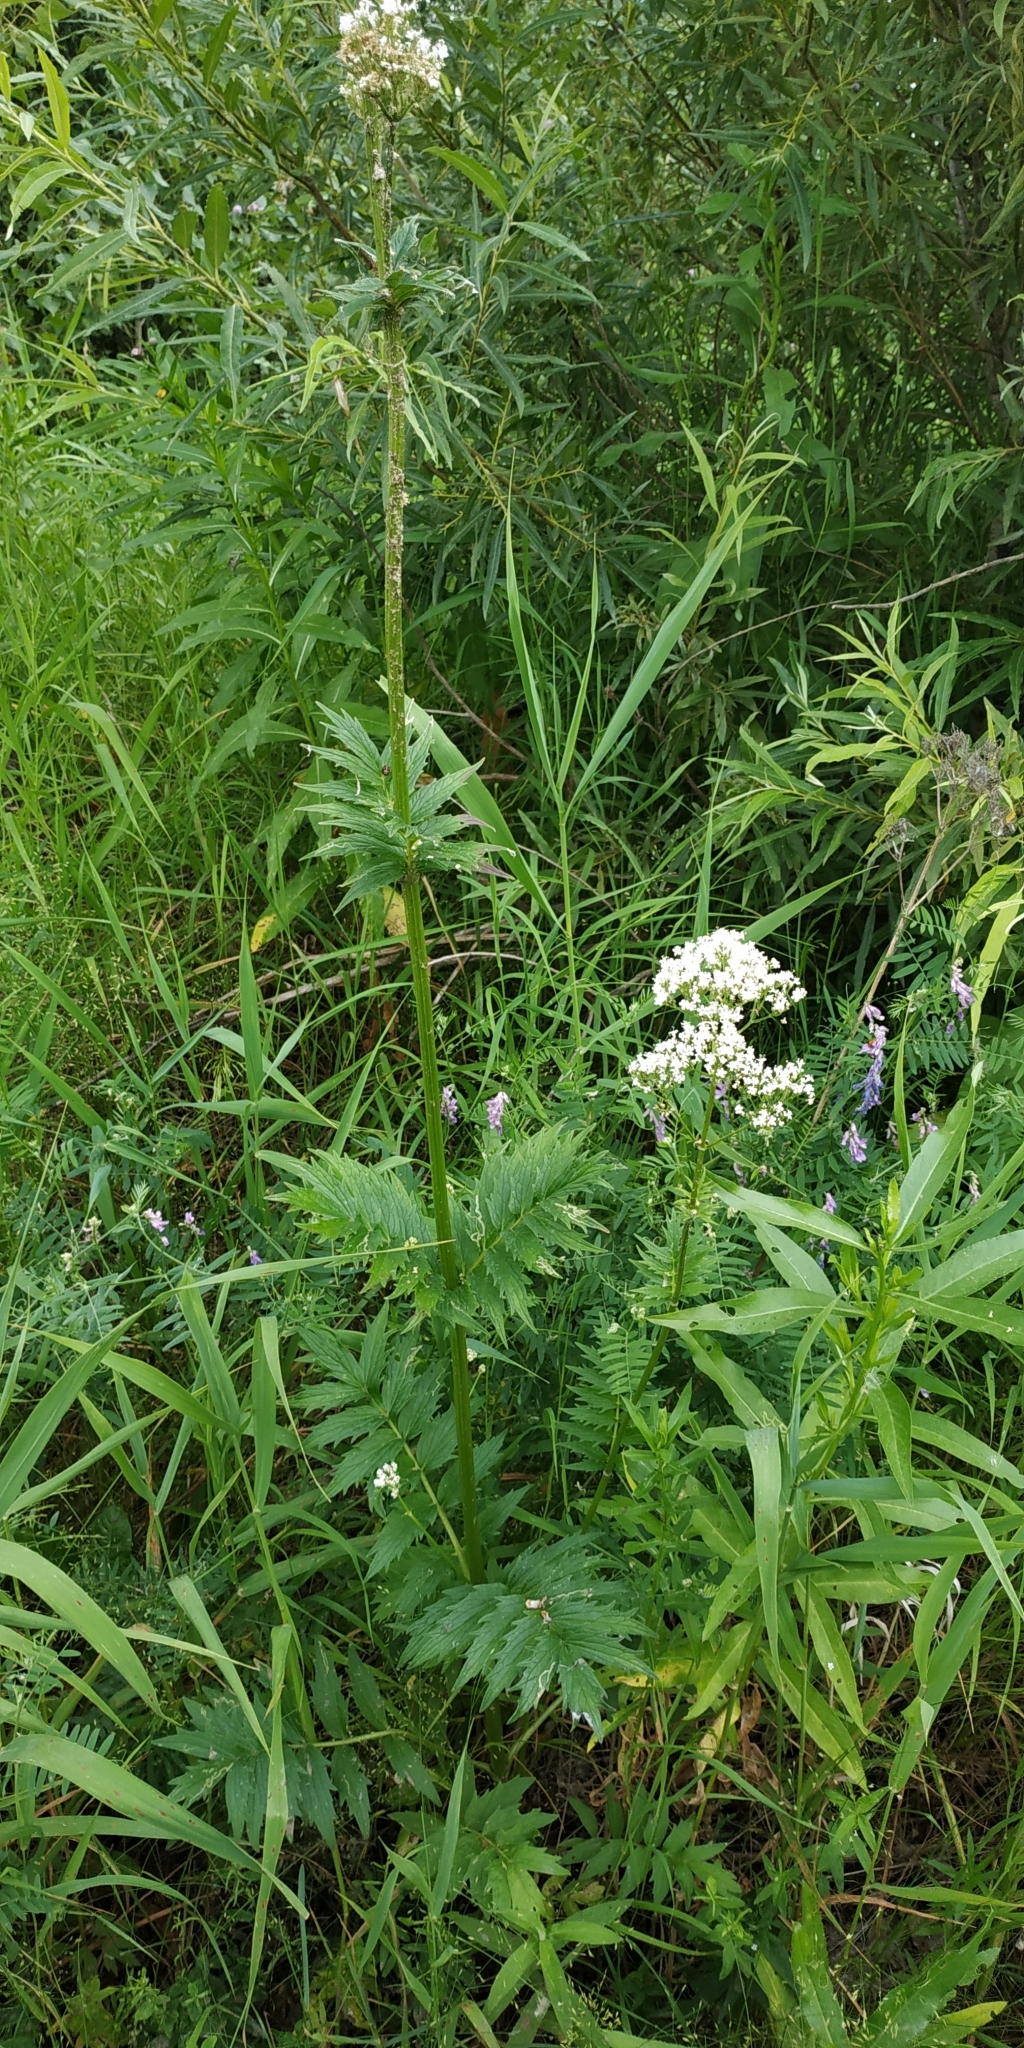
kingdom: Plantae
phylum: Tracheophyta
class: Magnoliopsida
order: Dipsacales
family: Caprifoliaceae
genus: Valeriana
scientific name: Valeriana officinalis
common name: Common valerian
